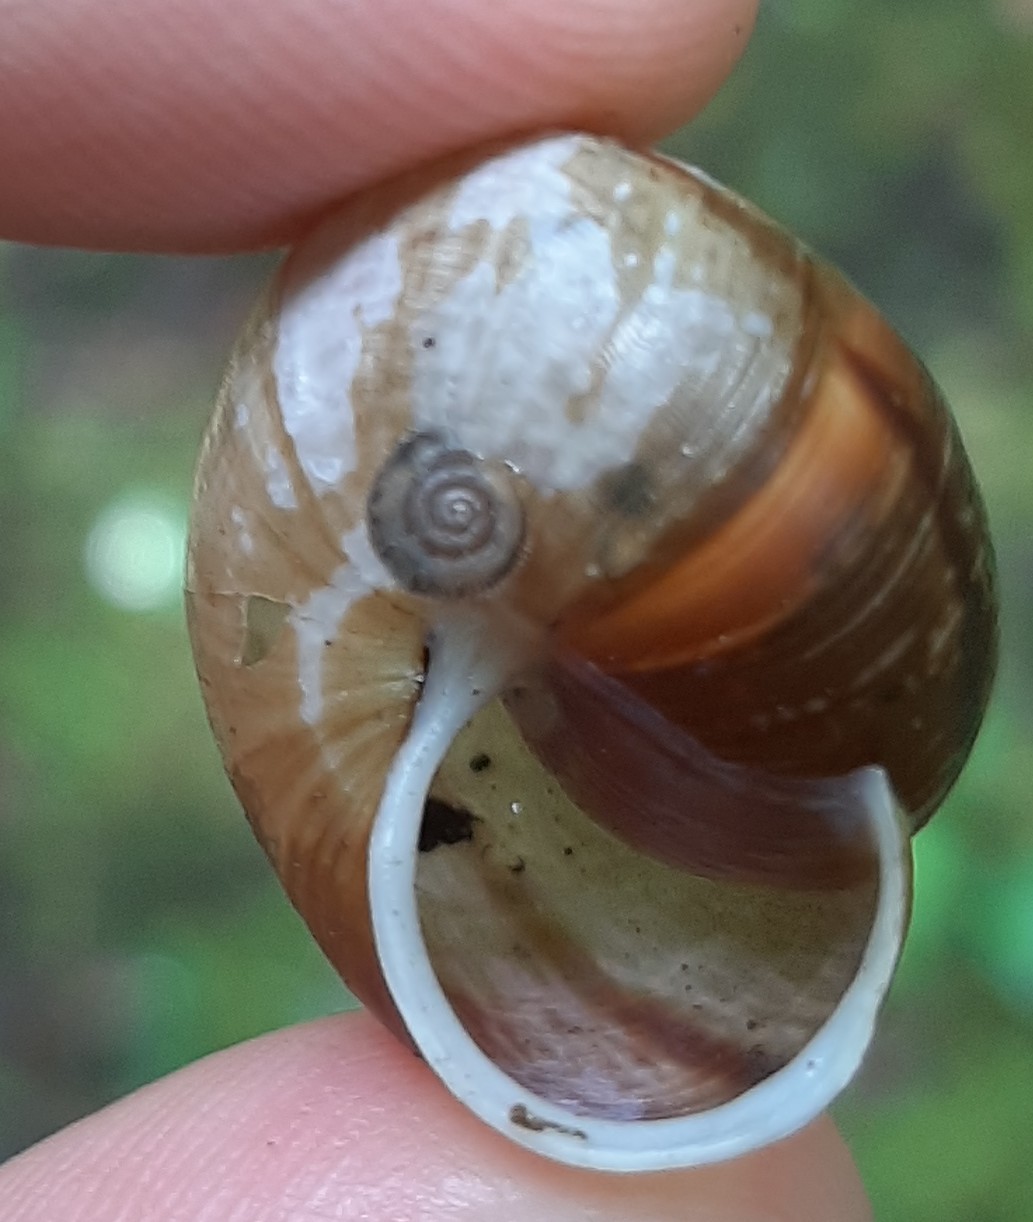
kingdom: Animalia
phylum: Mollusca
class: Gastropoda
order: Stylommatophora
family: Hygromiidae
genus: Trochulus
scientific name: Trochulus hispidus
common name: Hairy snail
